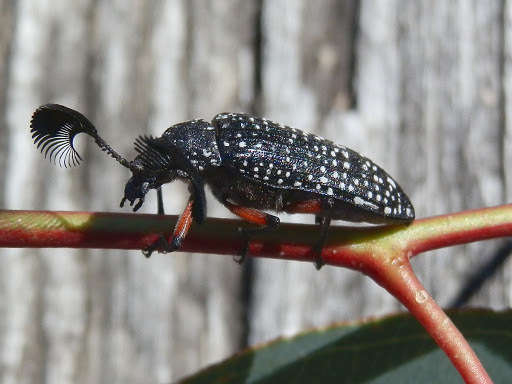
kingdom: Animalia
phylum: Arthropoda
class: Insecta
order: Coleoptera
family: Rhipiceridae
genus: Rhipicera
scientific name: Rhipicera femorata
